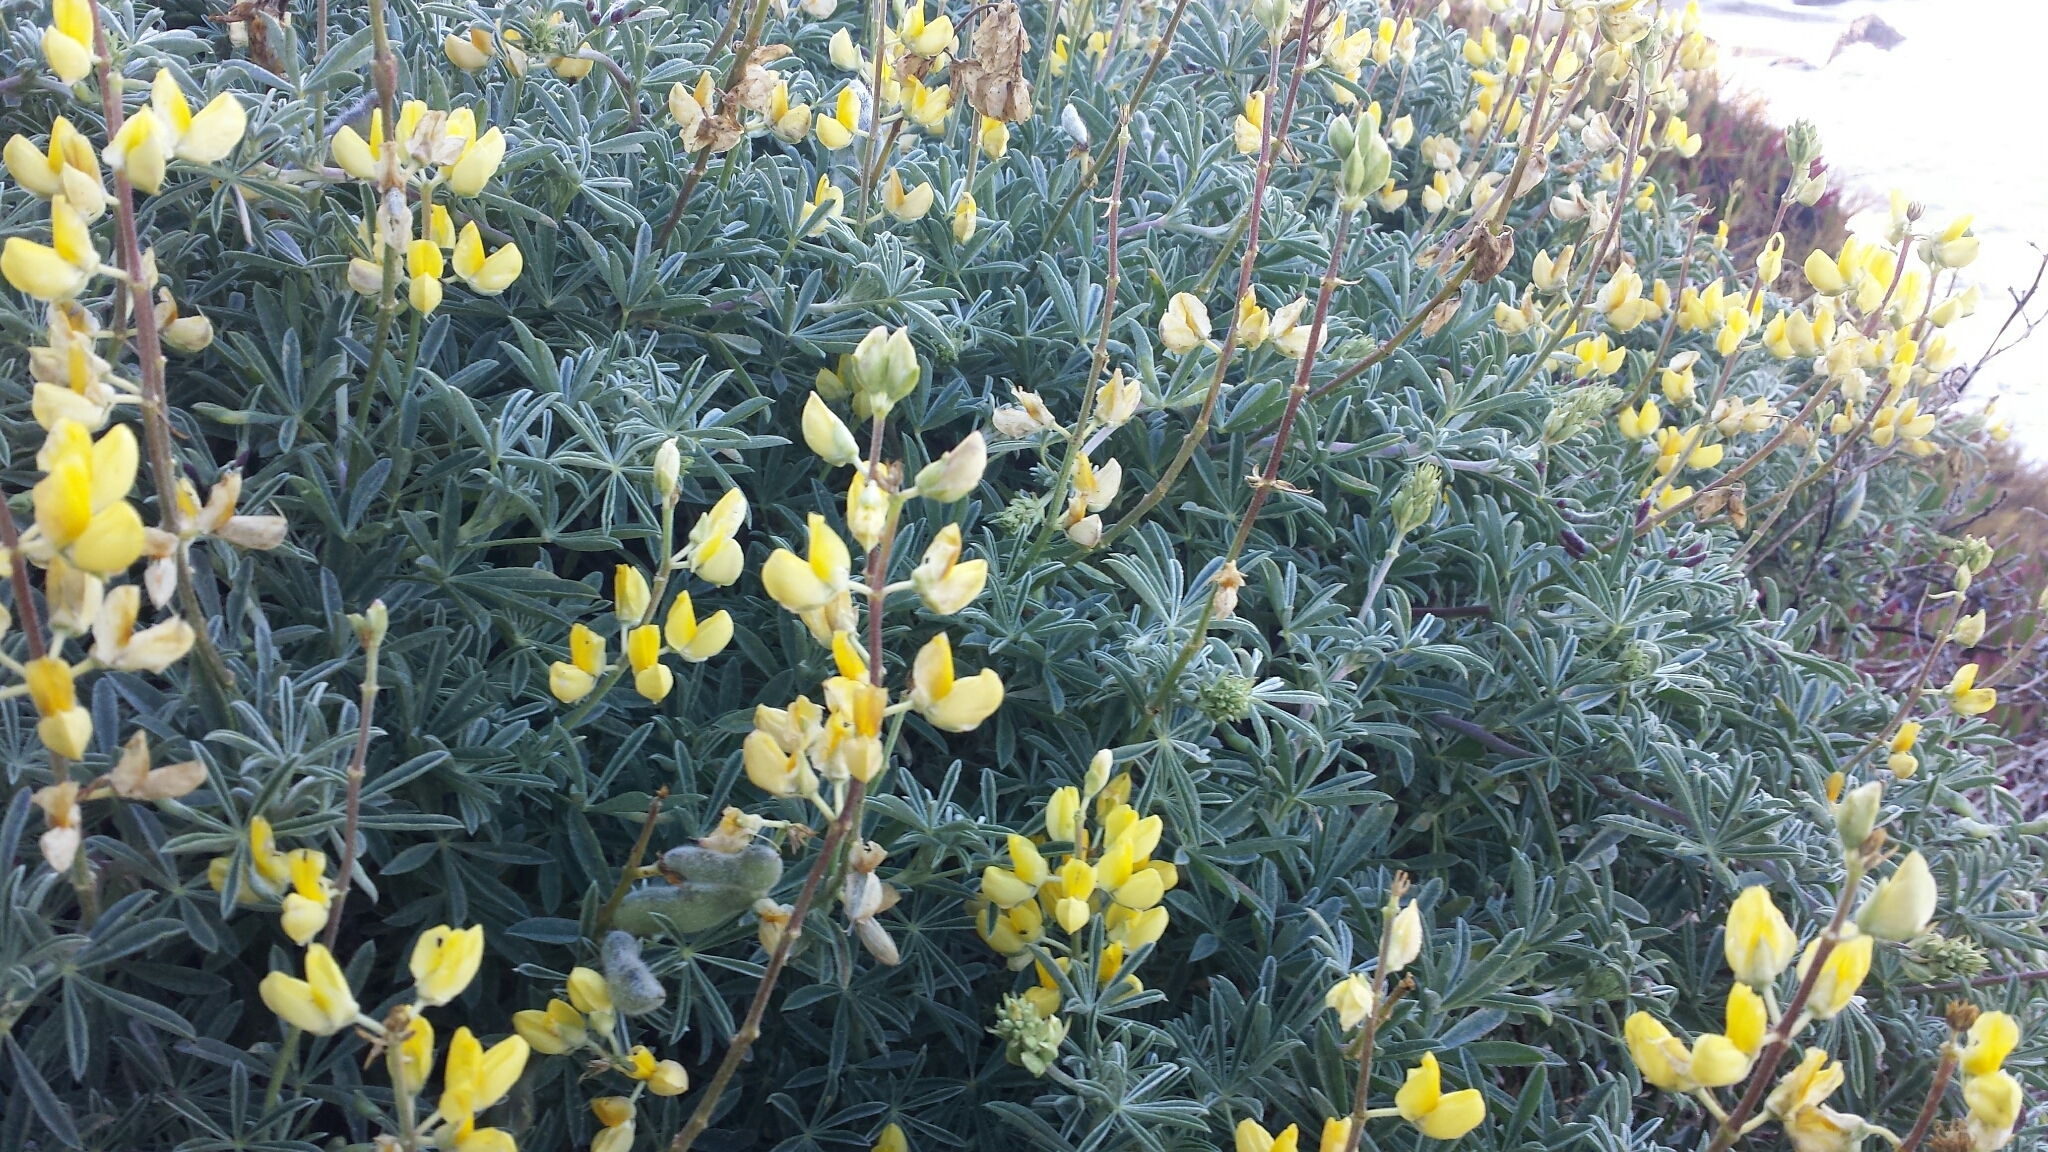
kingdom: Plantae
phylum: Tracheophyta
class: Magnoliopsida
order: Fabales
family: Fabaceae
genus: Lupinus
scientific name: Lupinus arboreus
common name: Yellow bush lupine
